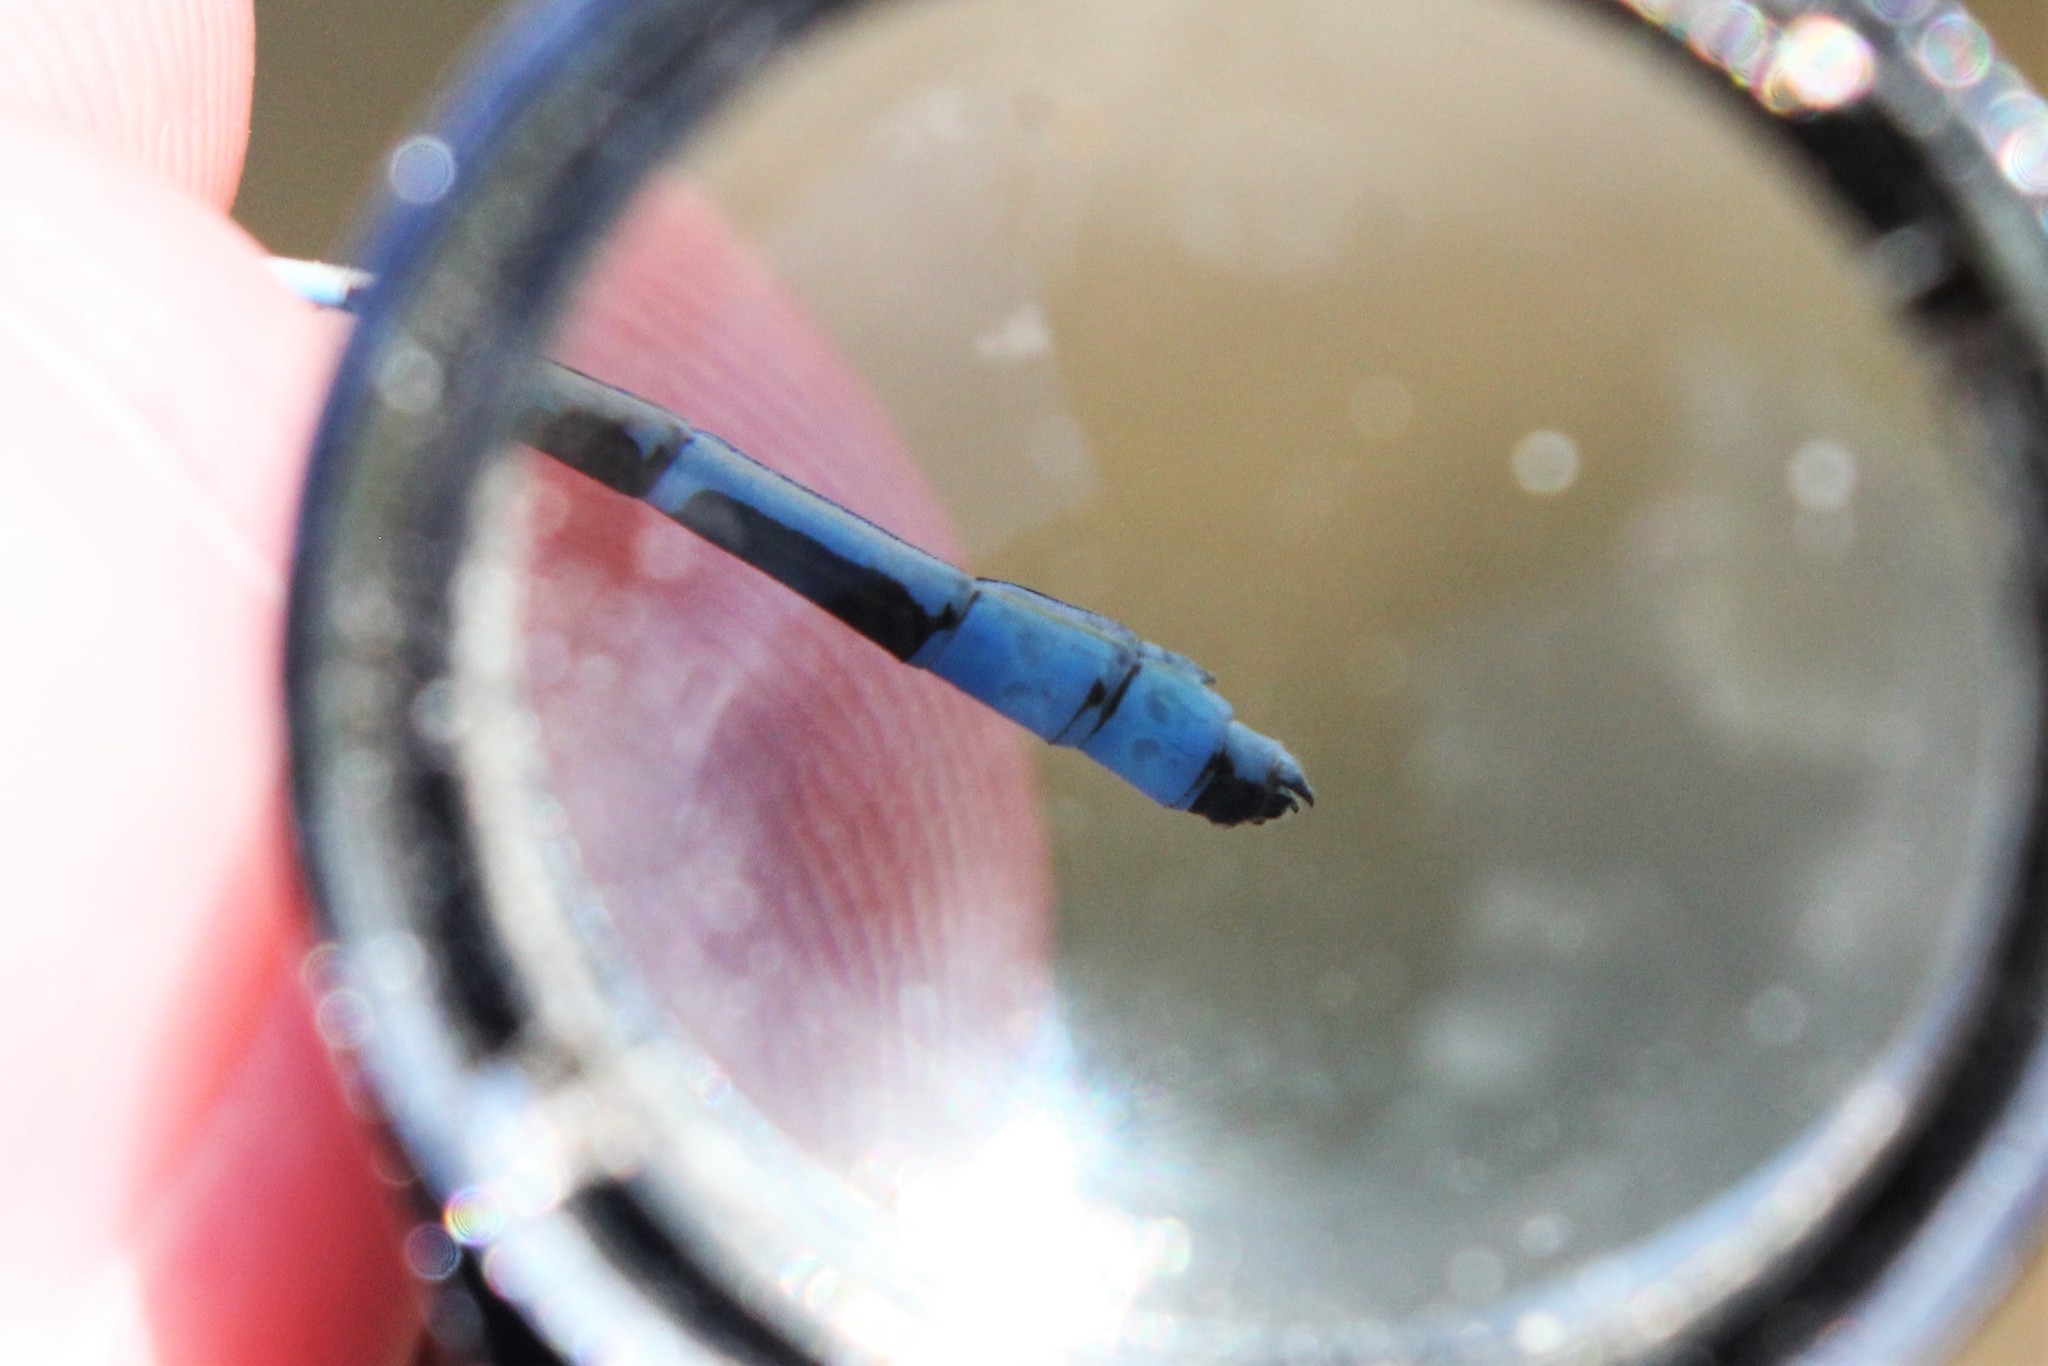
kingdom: Animalia
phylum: Arthropoda
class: Insecta
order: Odonata
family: Coenagrionidae
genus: Enallagma
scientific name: Enallagma annexum
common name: Northern bluet
